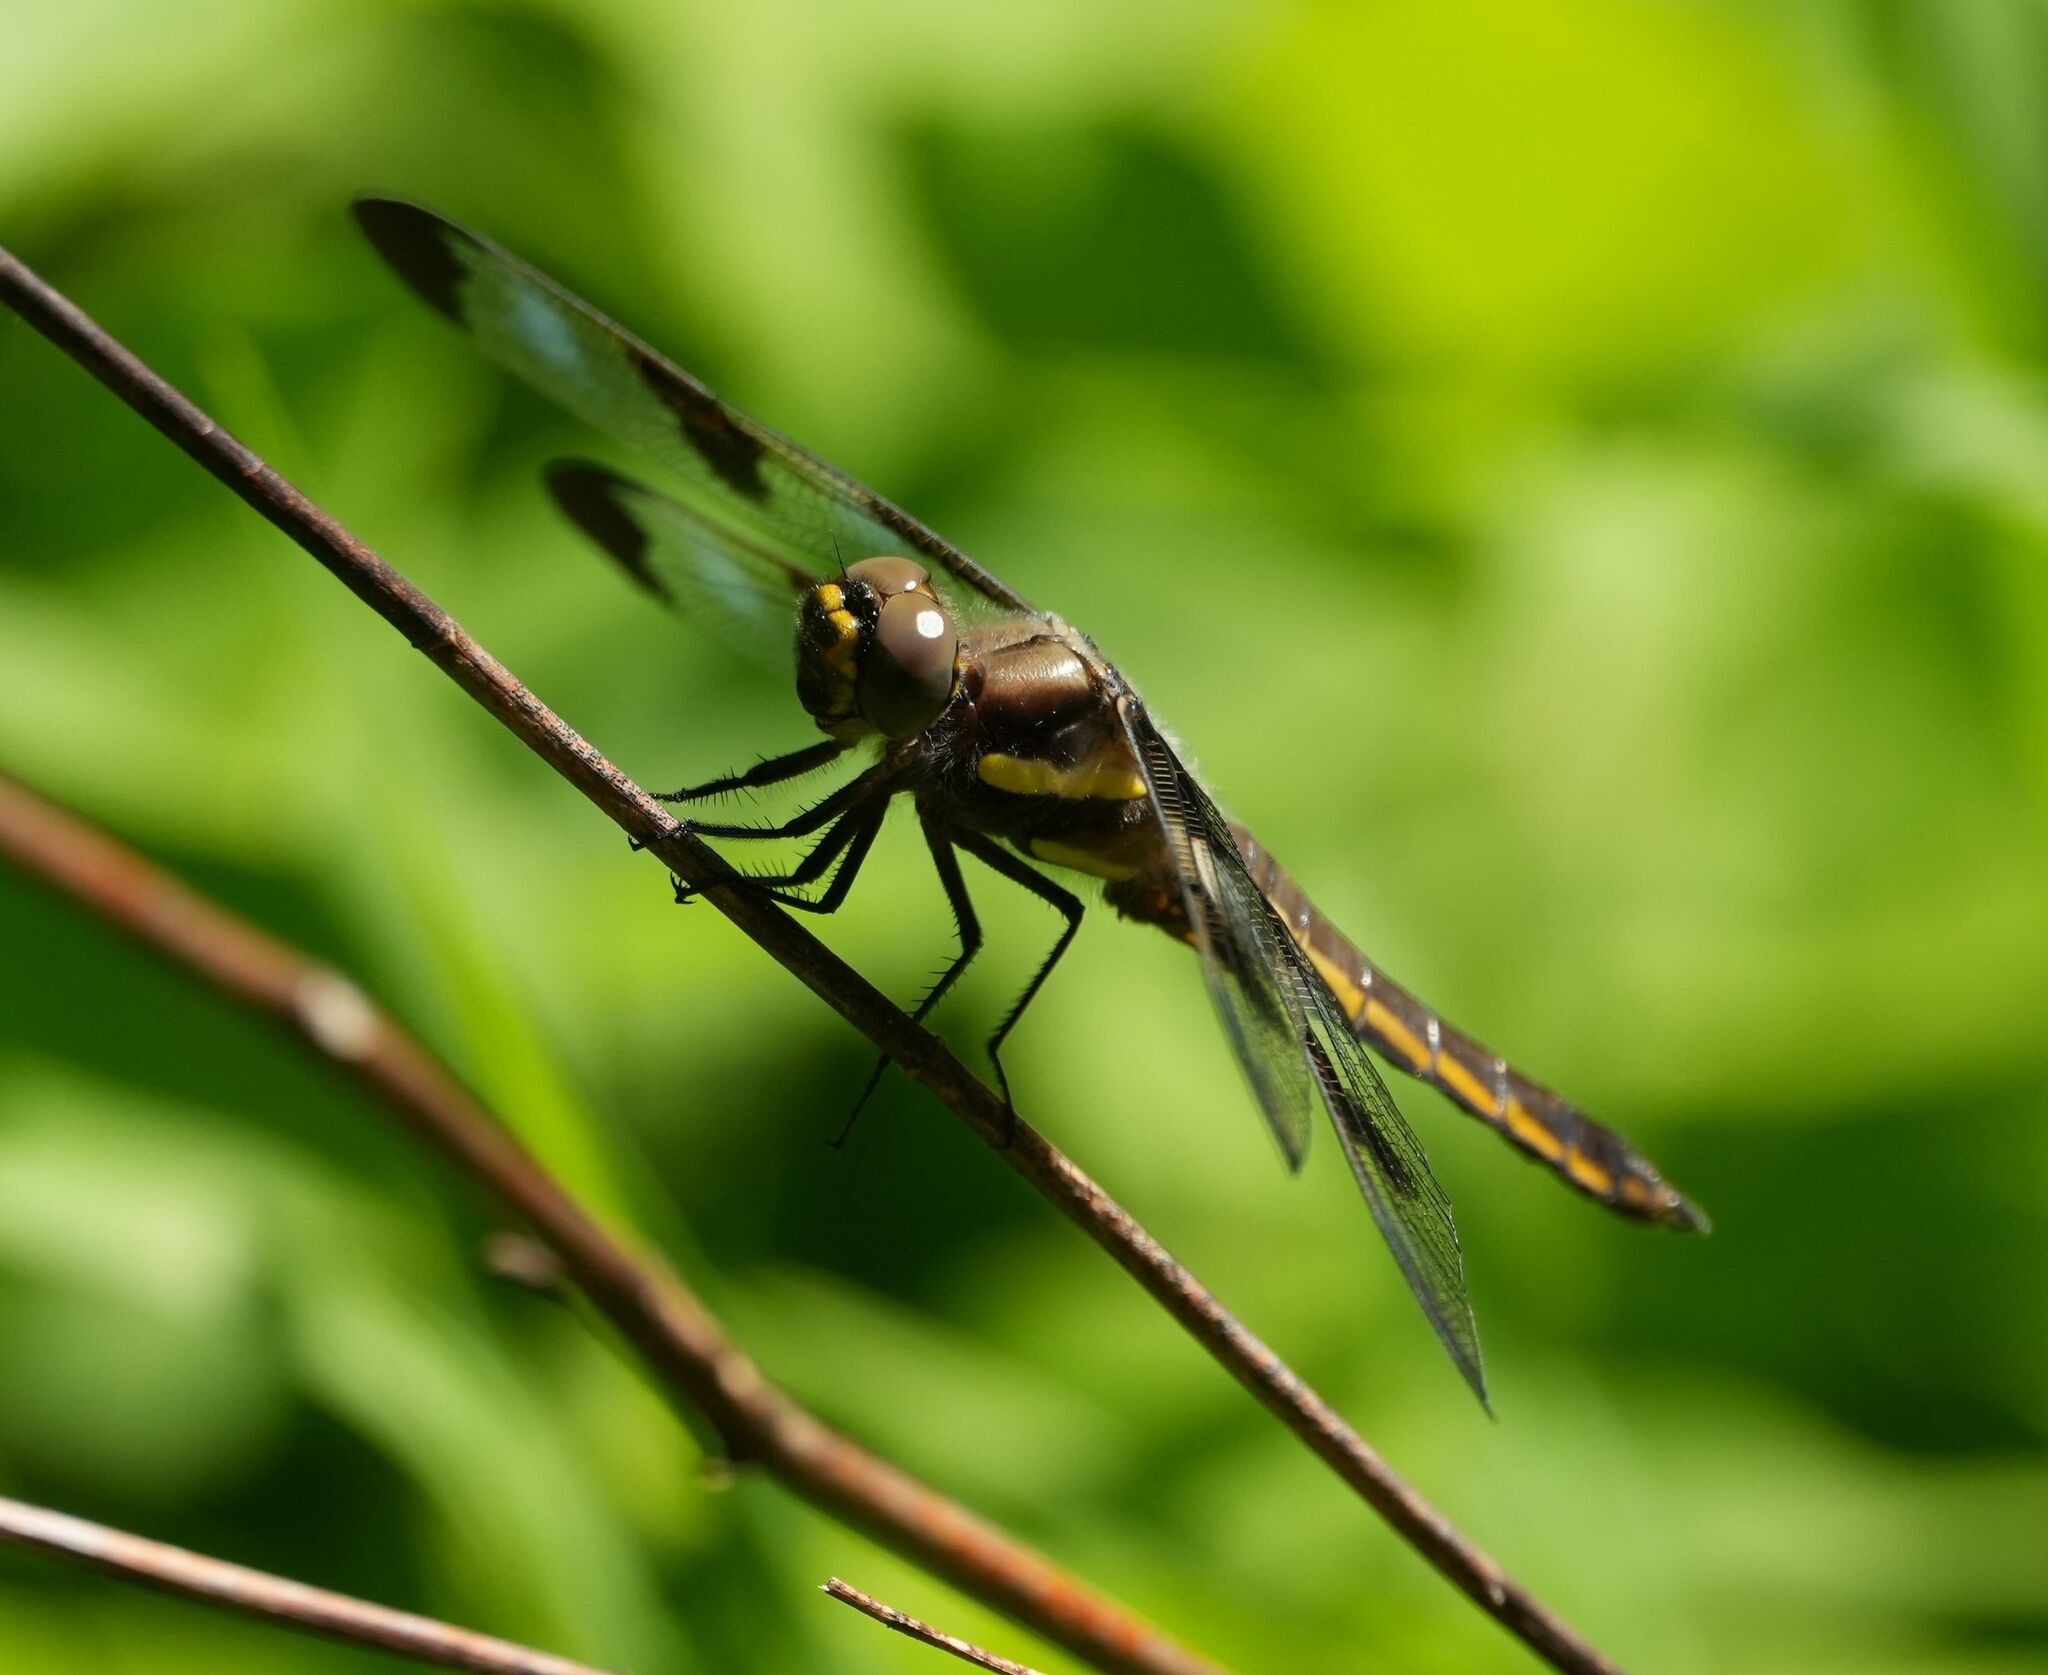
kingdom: Animalia
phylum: Arthropoda
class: Insecta
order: Odonata
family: Libellulidae
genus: Libellula
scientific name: Libellula pulchella
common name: Twelve-spotted skimmer
